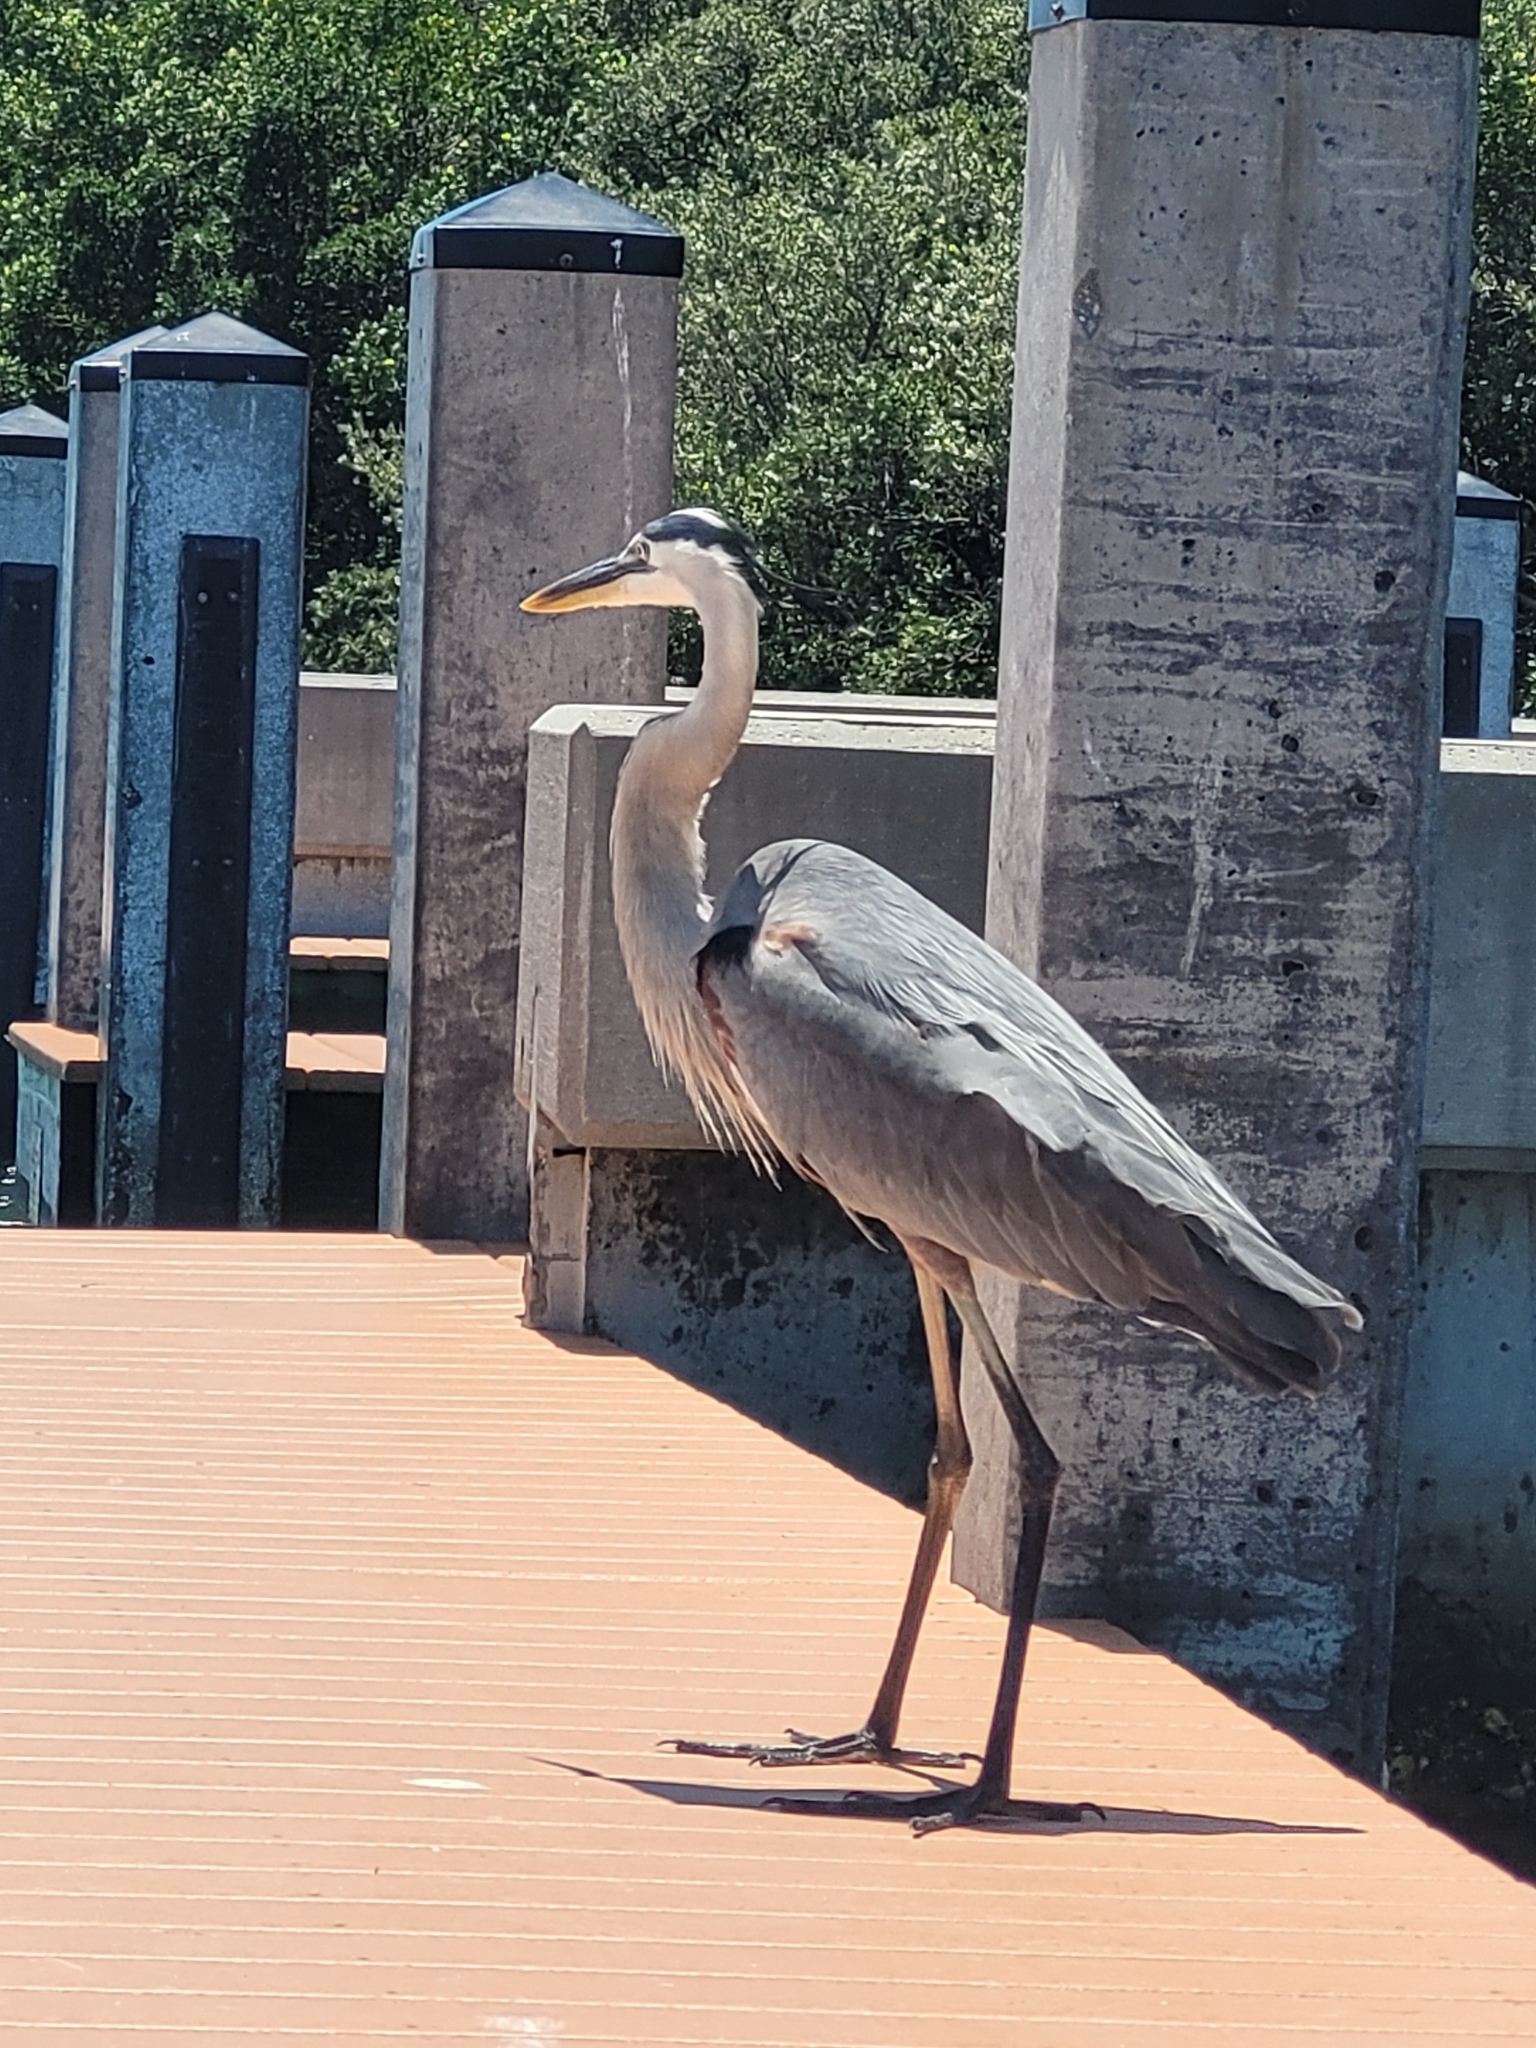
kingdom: Animalia
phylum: Chordata
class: Aves
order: Pelecaniformes
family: Ardeidae
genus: Ardea
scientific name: Ardea herodias
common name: Great blue heron
